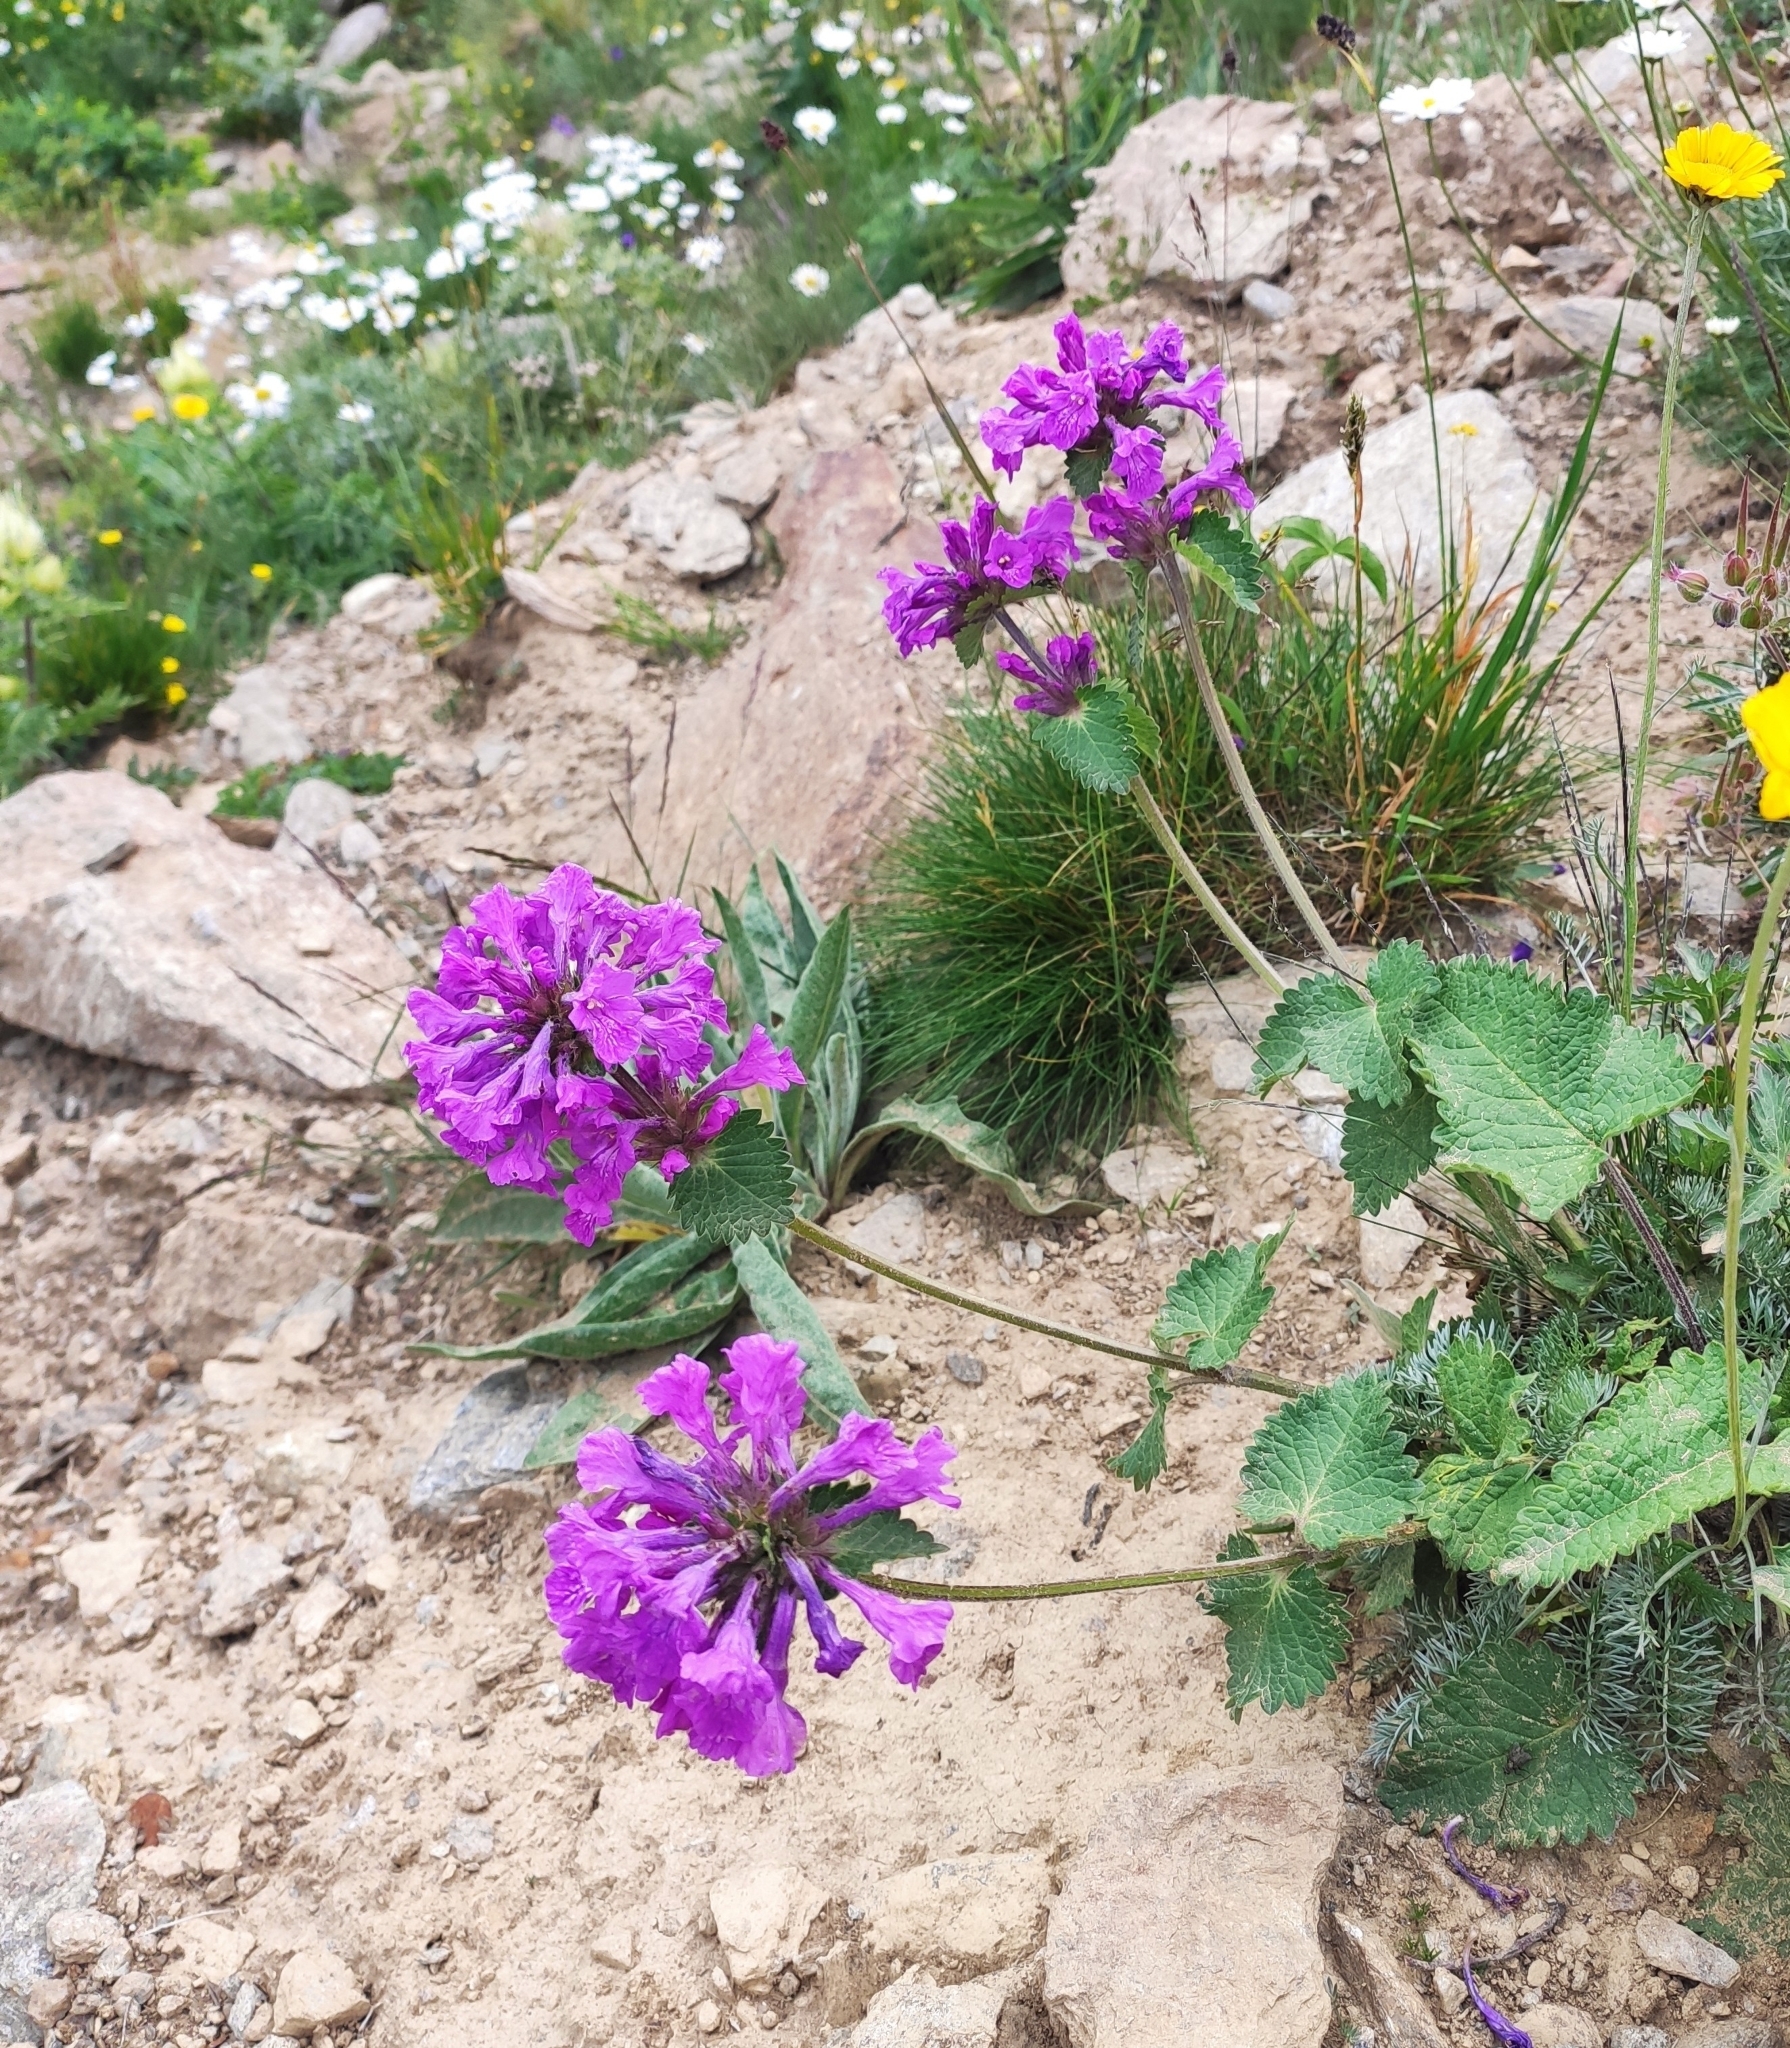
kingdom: Plantae
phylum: Tracheophyta
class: Magnoliopsida
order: Lamiales
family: Lamiaceae
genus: Betonica
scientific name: Betonica macrantha
